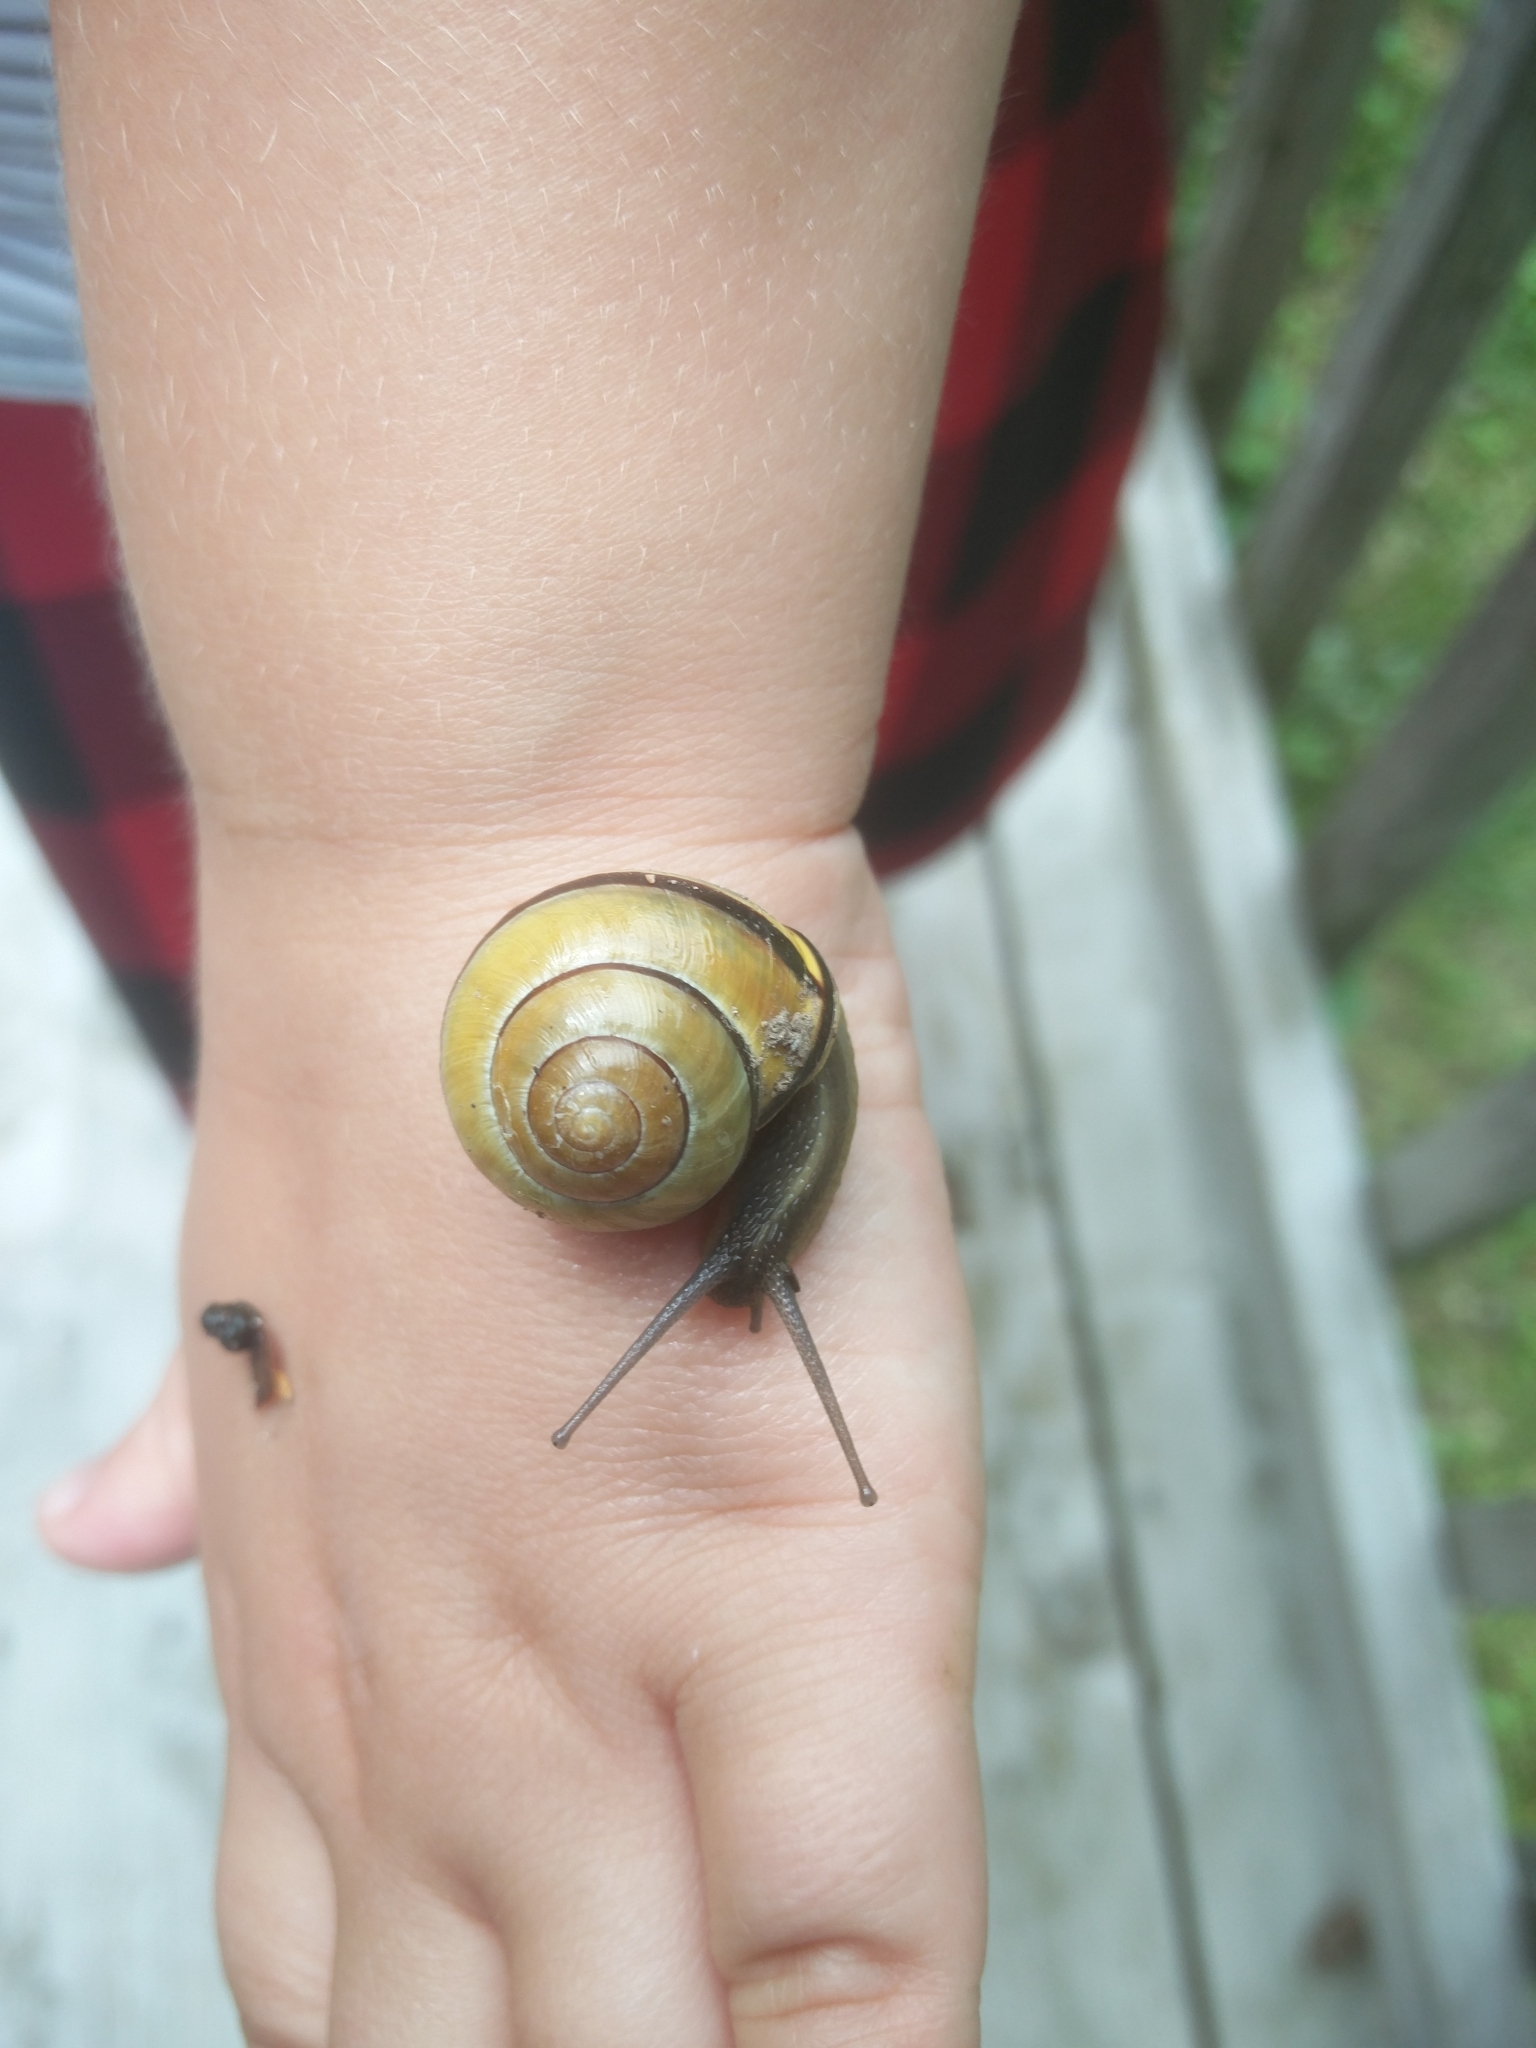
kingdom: Animalia
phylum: Mollusca
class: Gastropoda
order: Stylommatophora
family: Helicidae
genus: Cepaea
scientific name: Cepaea nemoralis
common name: Grovesnail
